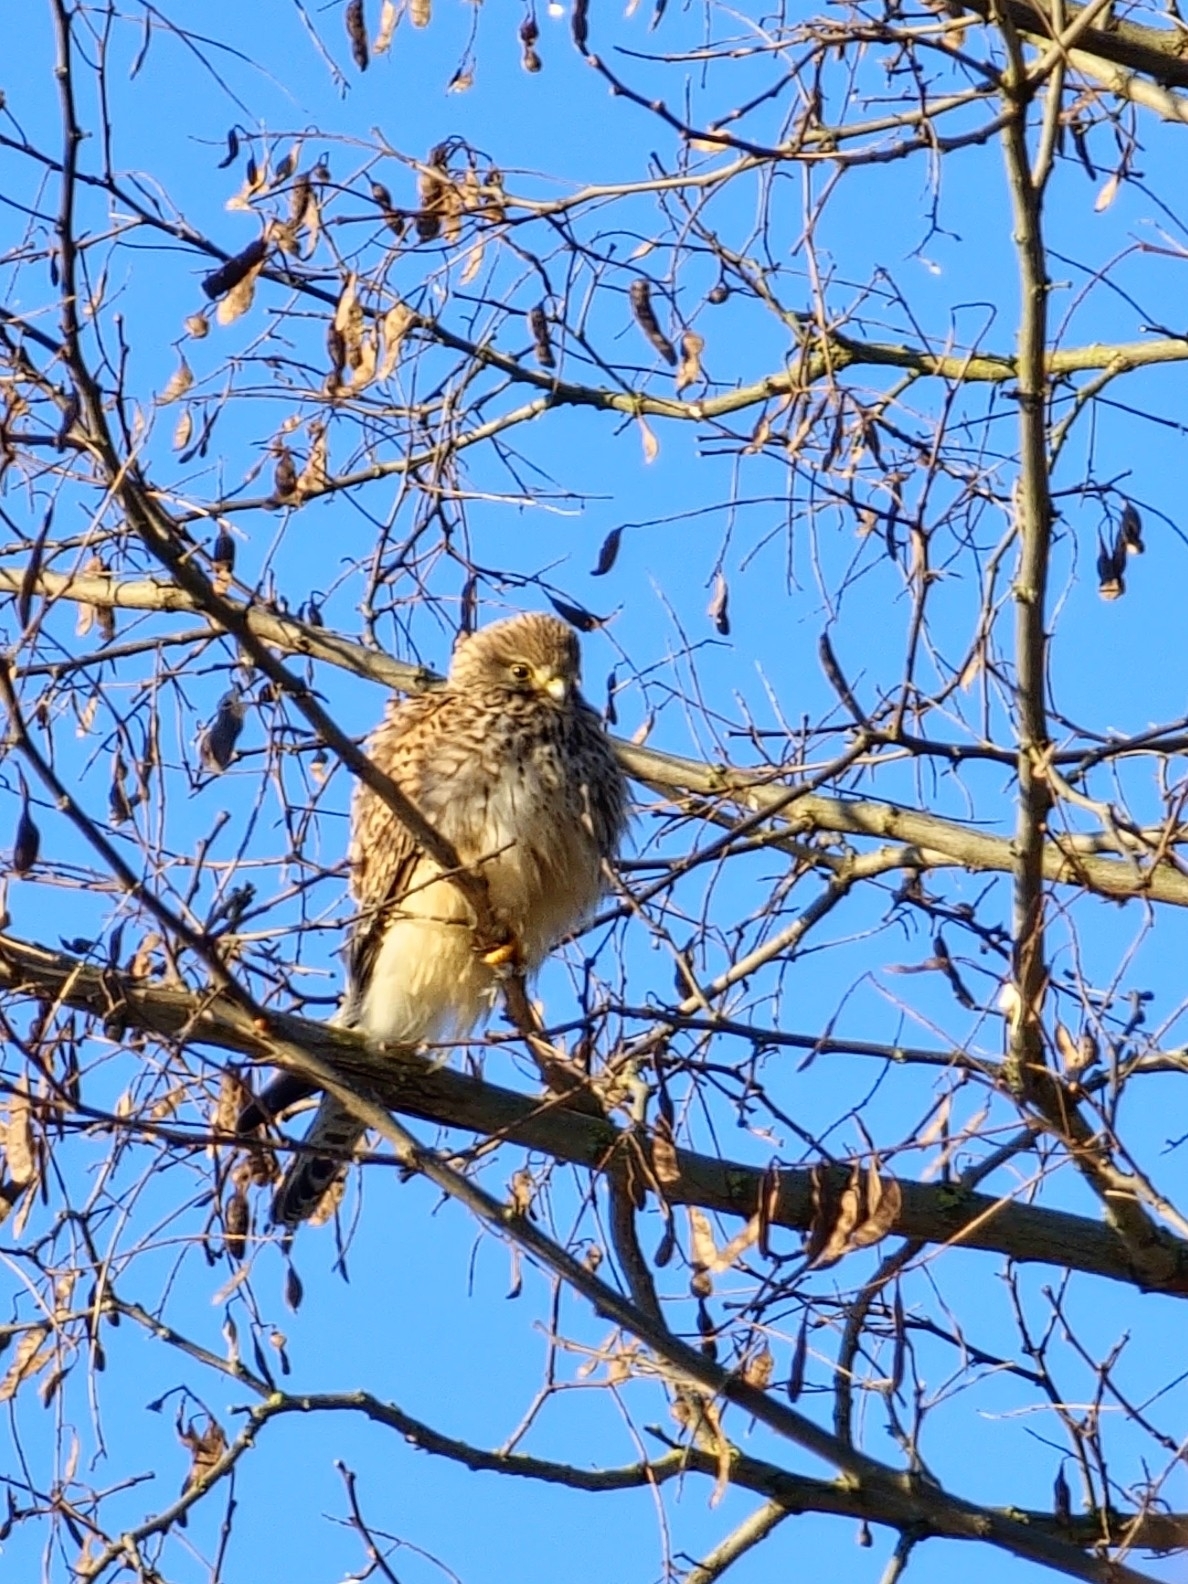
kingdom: Animalia
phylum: Chordata
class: Aves
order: Falconiformes
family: Falconidae
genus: Falco
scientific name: Falco tinnunculus
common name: Common kestrel
